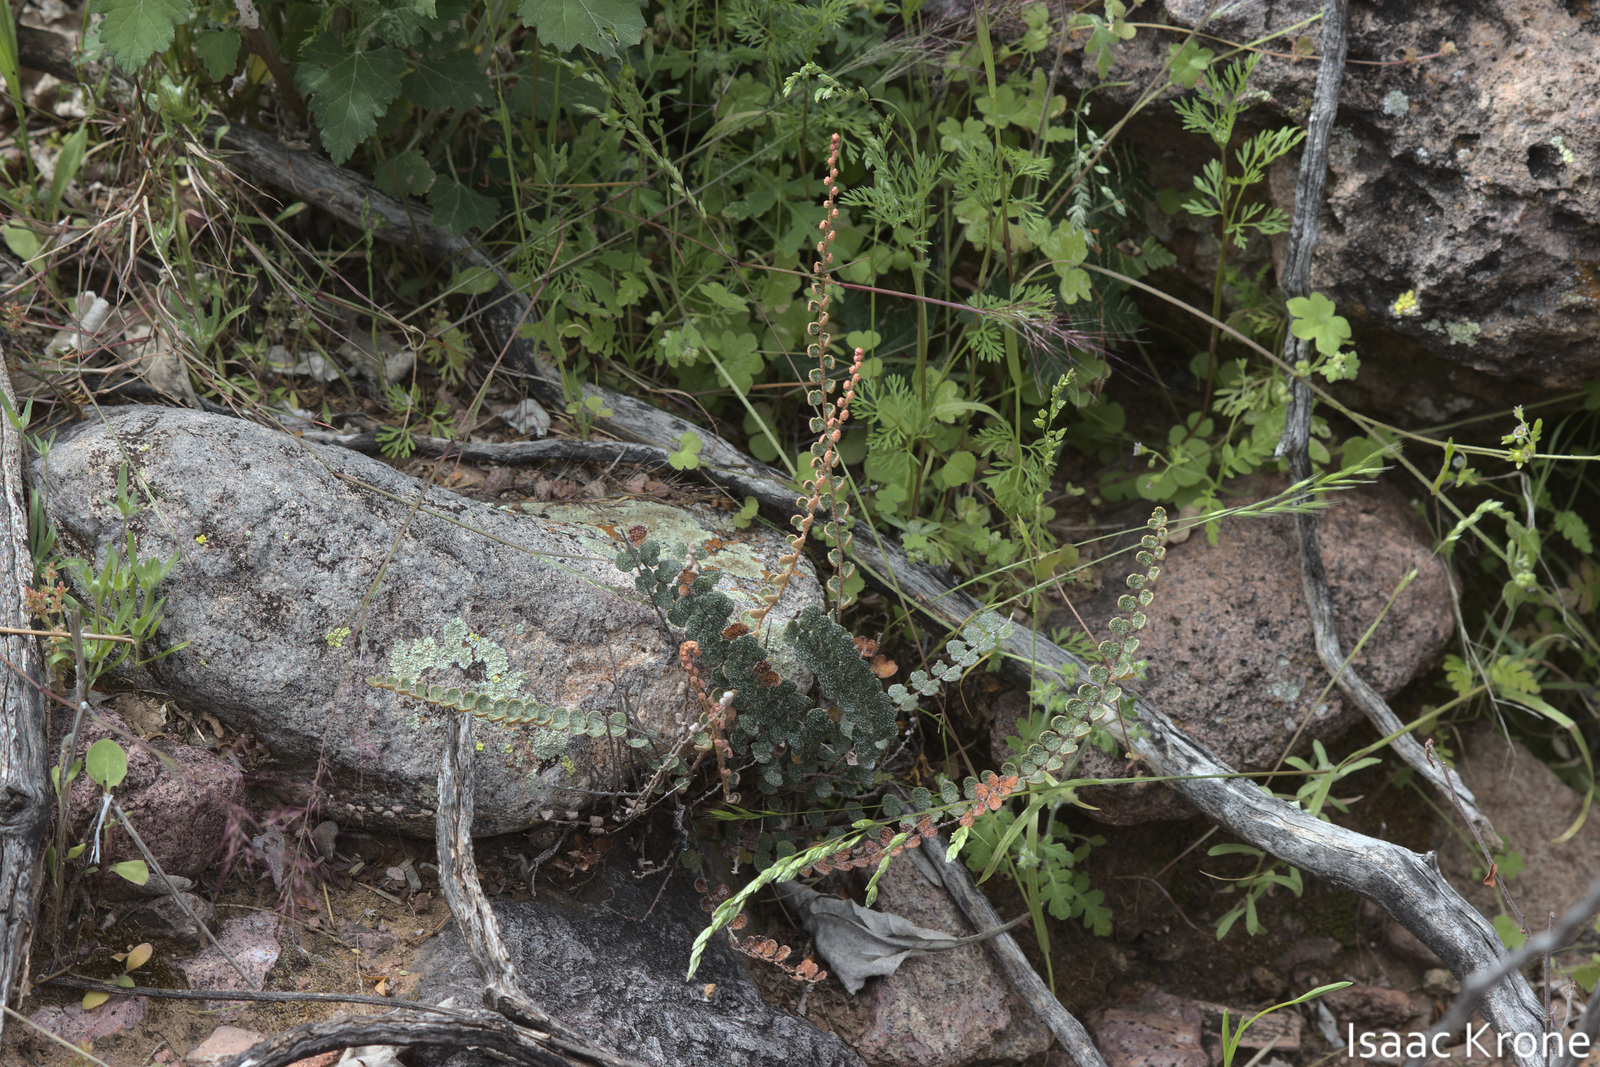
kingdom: Plantae
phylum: Tracheophyta
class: Polypodiopsida
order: Polypodiales
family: Pteridaceae
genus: Astrolepis
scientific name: Astrolepis cochisensis
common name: Scaly cloak fern
